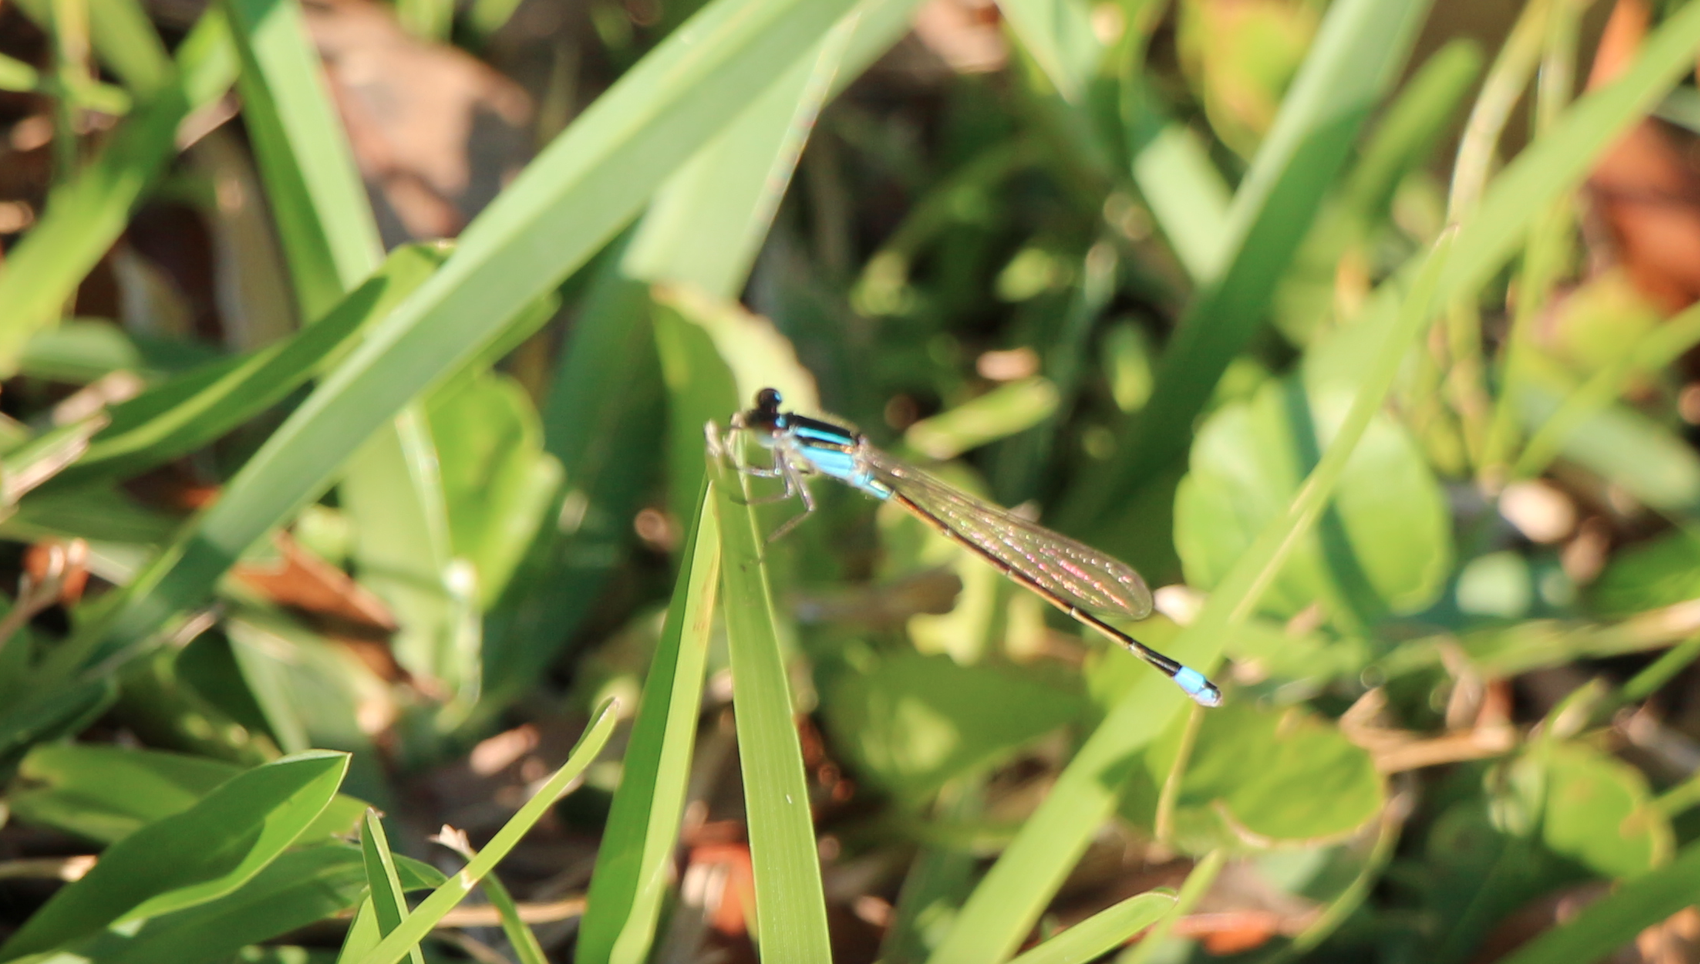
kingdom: Animalia
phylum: Arthropoda
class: Insecta
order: Odonata
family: Coenagrionidae
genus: Ischnura
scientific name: Ischnura ramburii
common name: Rambur's forktail
